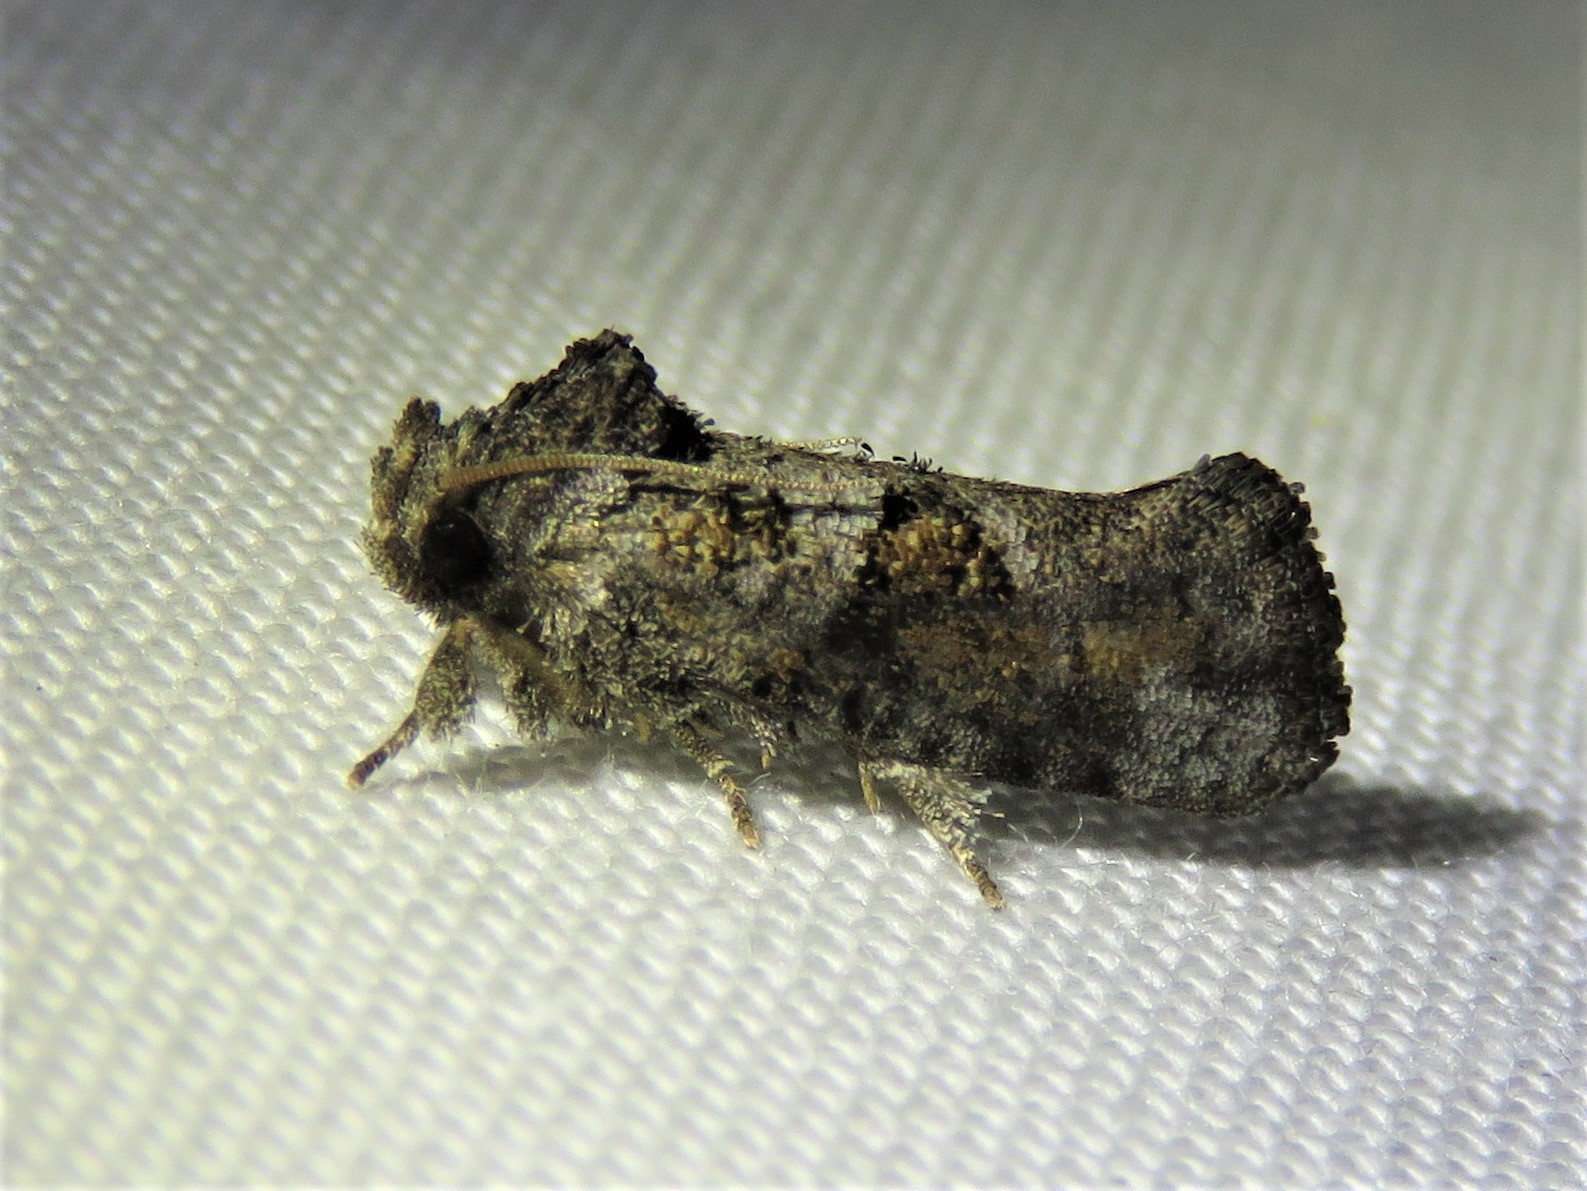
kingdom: Animalia
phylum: Arthropoda
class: Insecta
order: Lepidoptera
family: Tineidae
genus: Acrolophus
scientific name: Acrolophus piger
